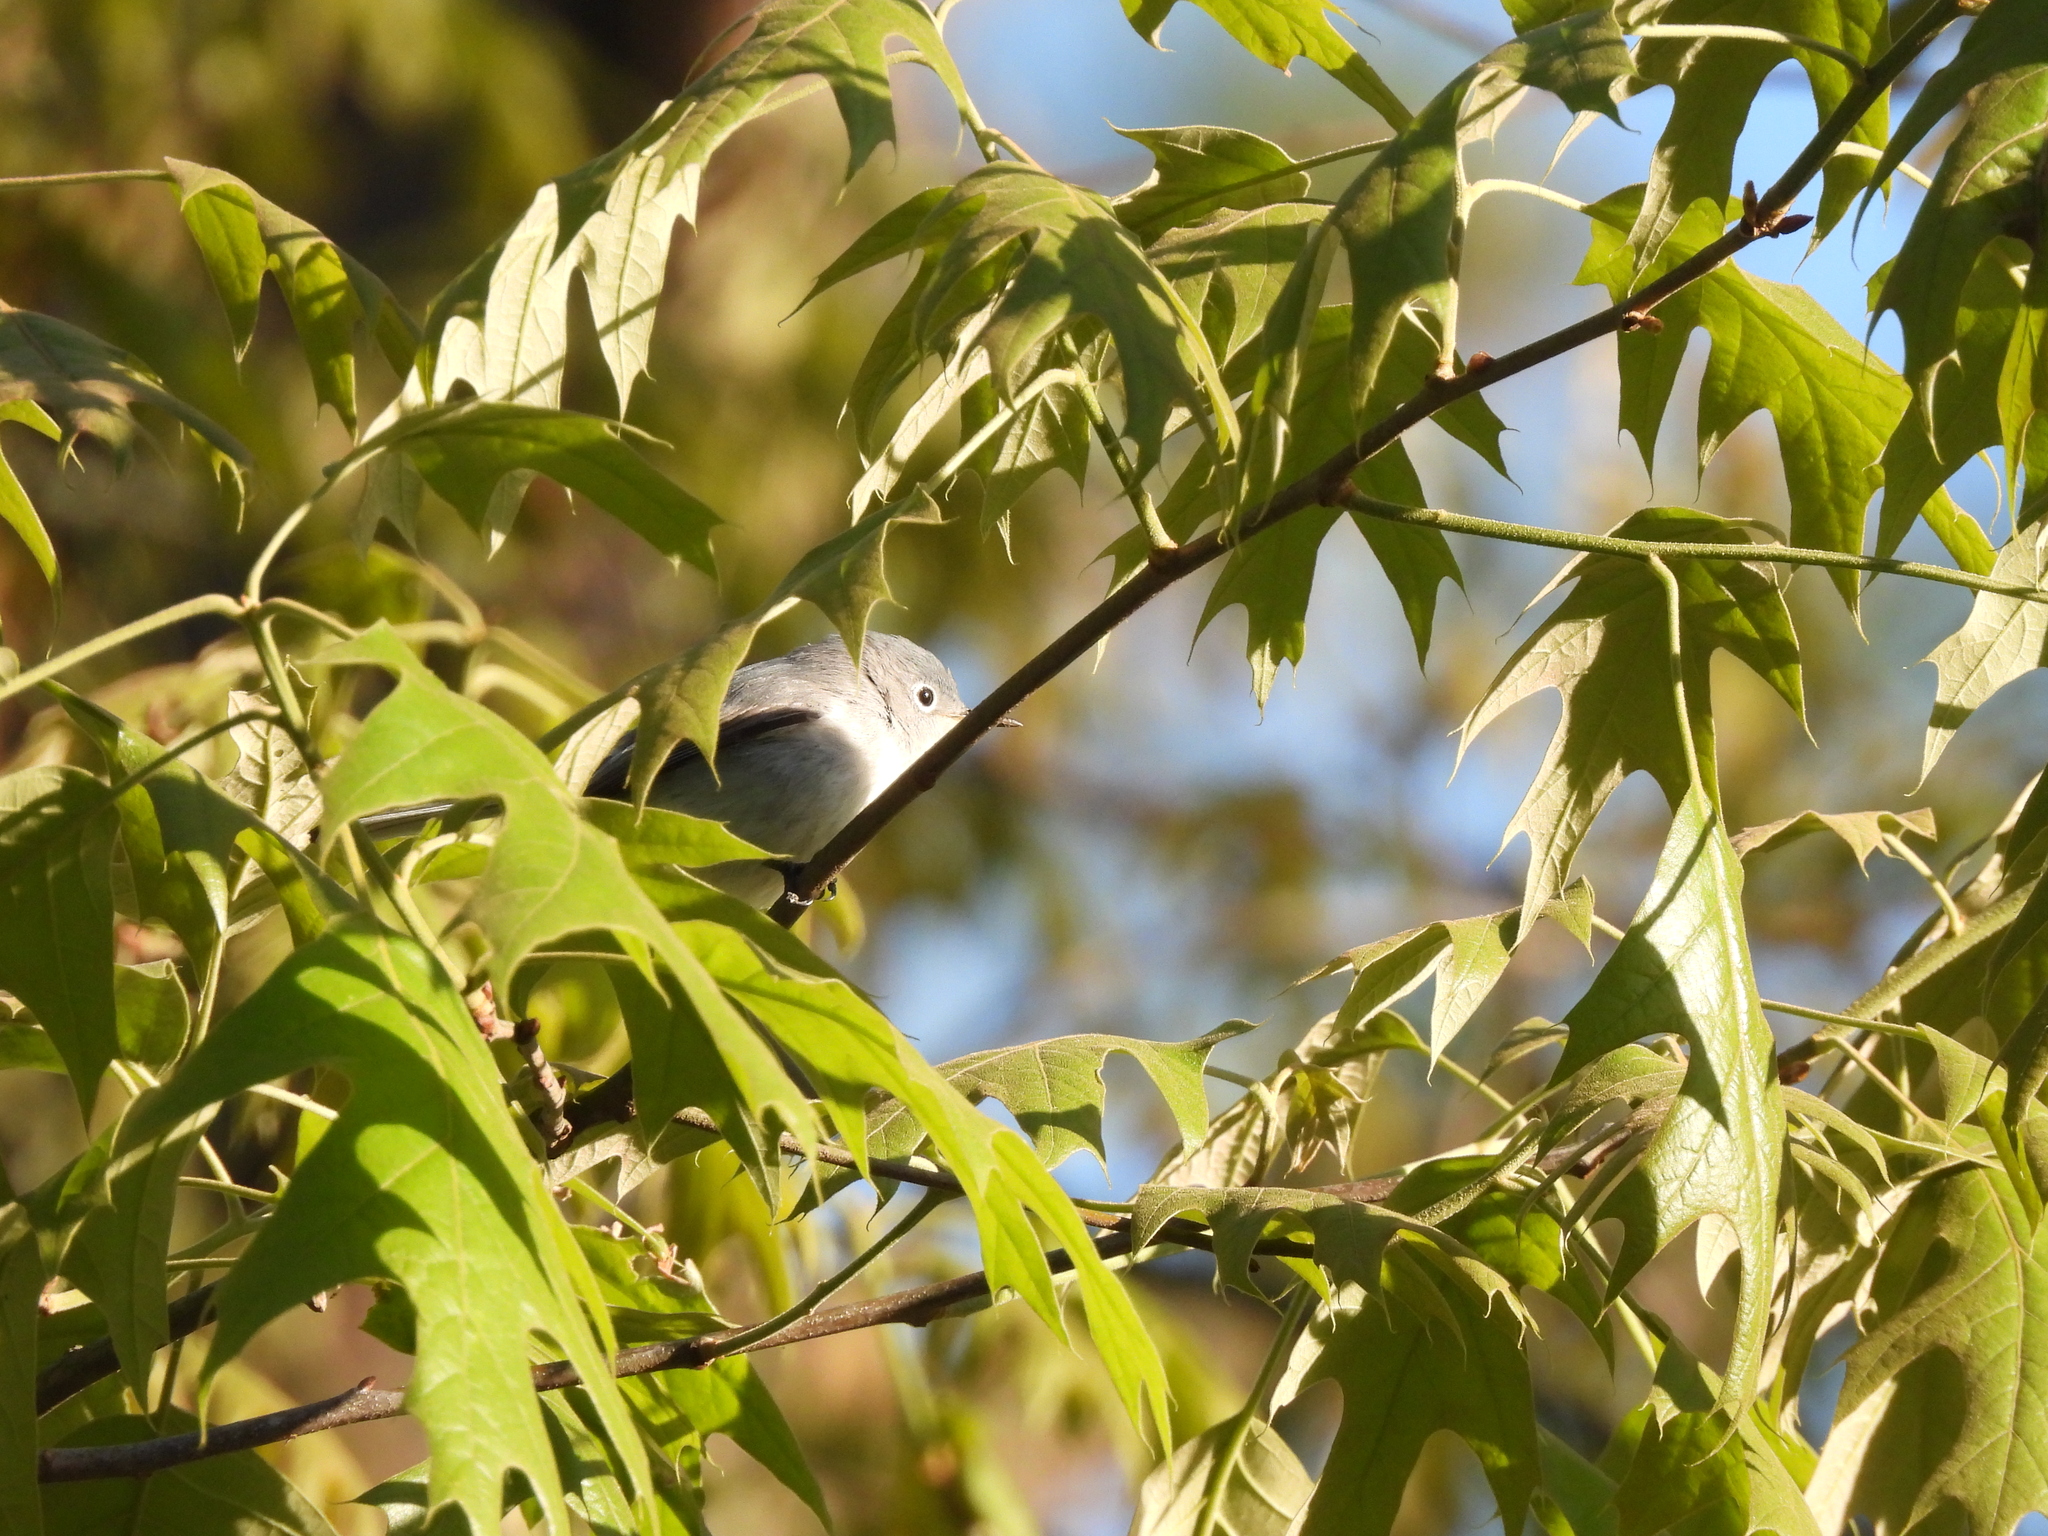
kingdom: Animalia
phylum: Chordata
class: Aves
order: Passeriformes
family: Polioptilidae
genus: Polioptila
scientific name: Polioptila caerulea
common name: Blue-gray gnatcatcher
